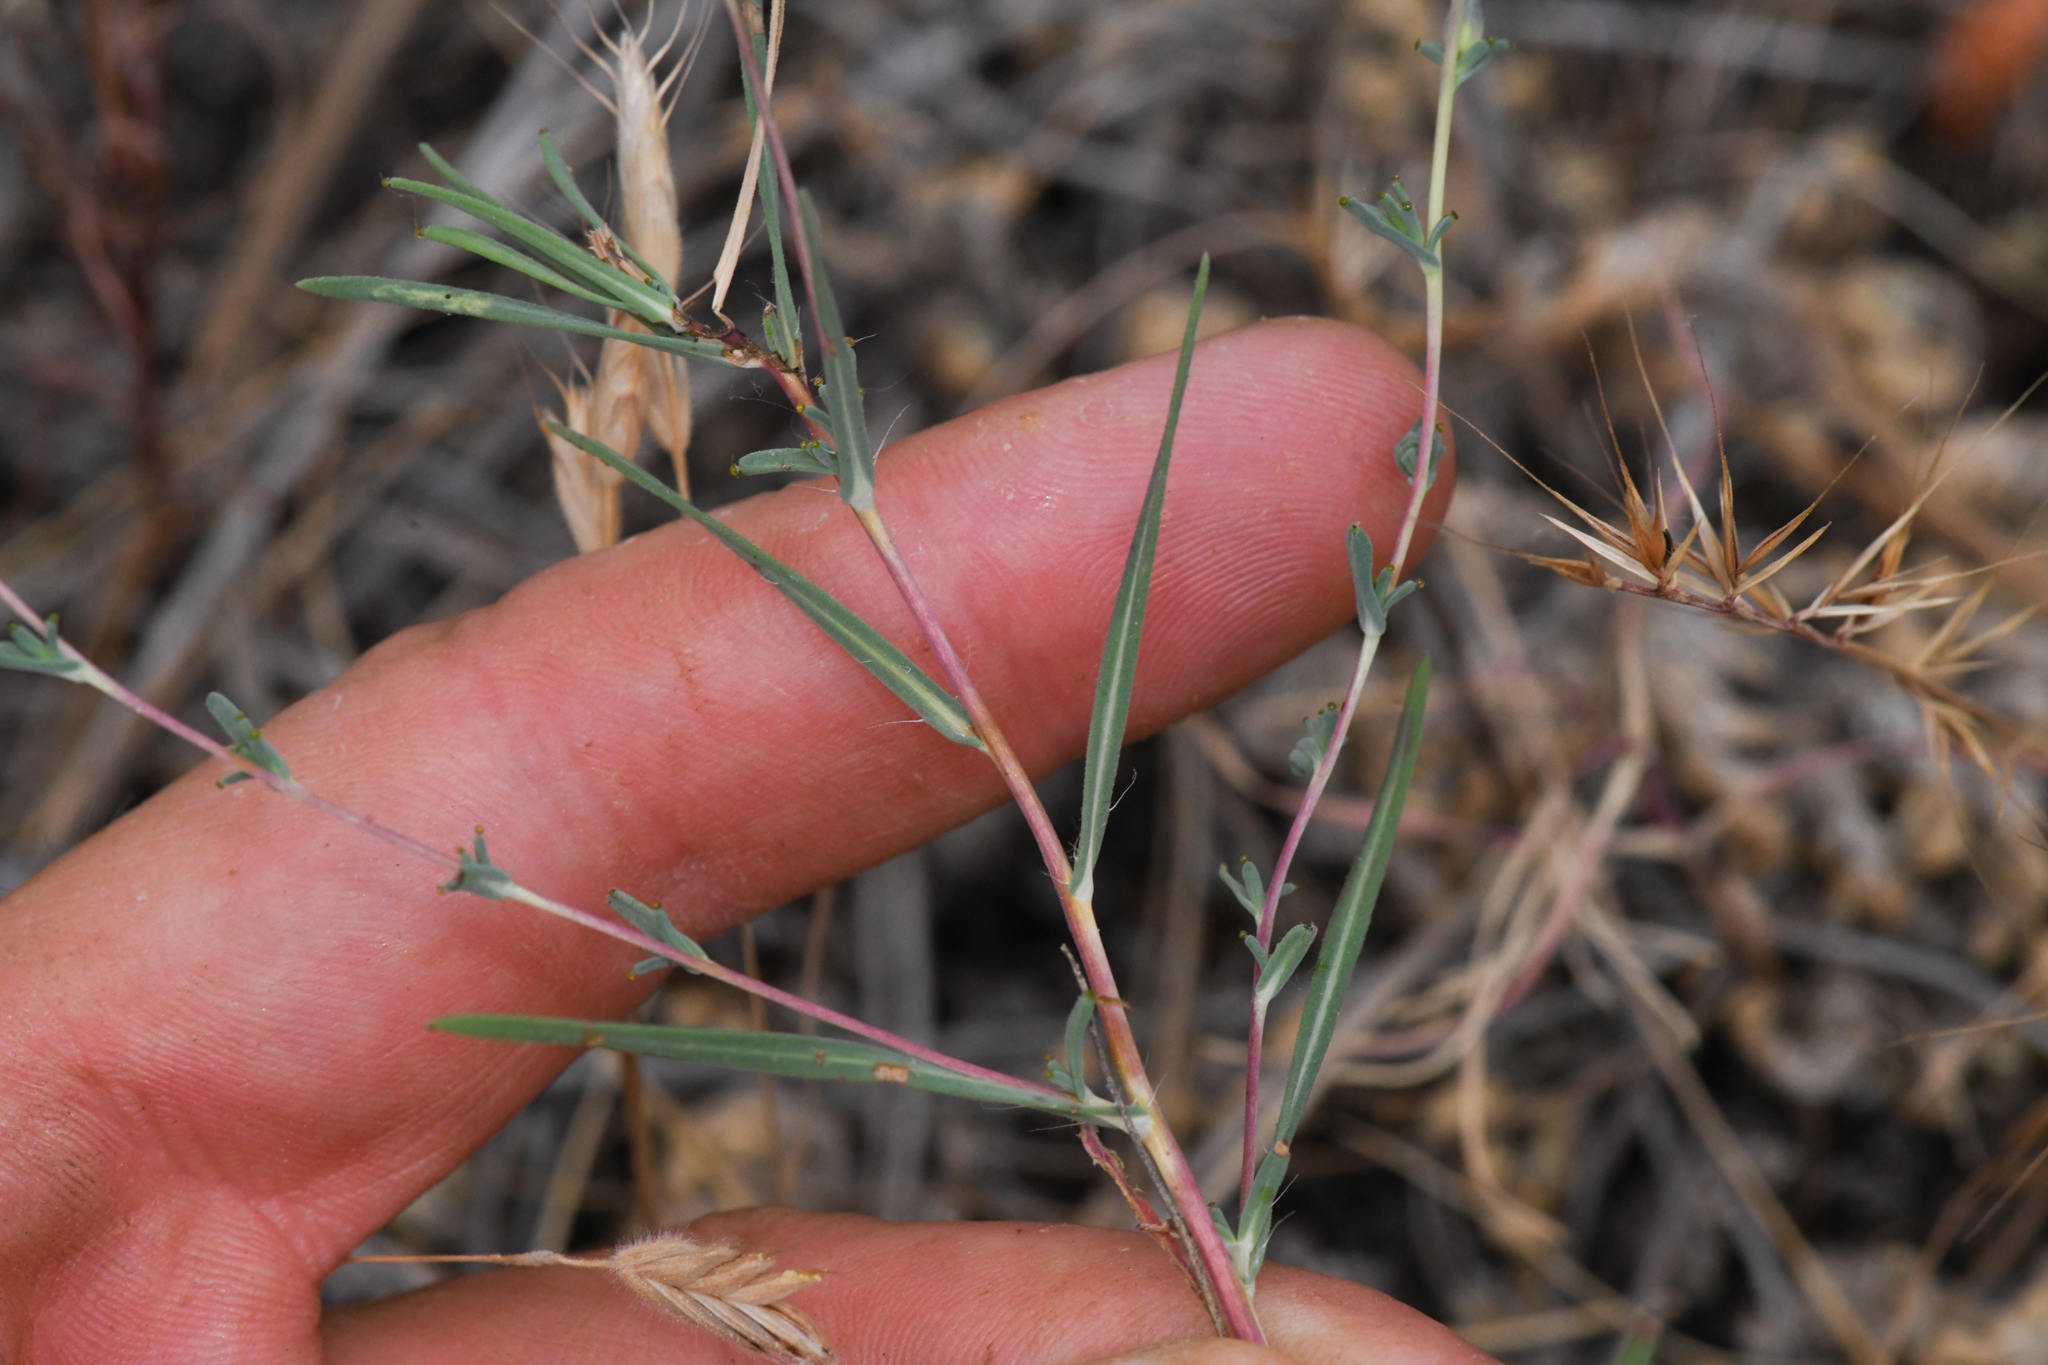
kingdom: Plantae
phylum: Tracheophyta
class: Magnoliopsida
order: Asterales
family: Asteraceae
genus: Calycadenia
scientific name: Calycadenia truncata
